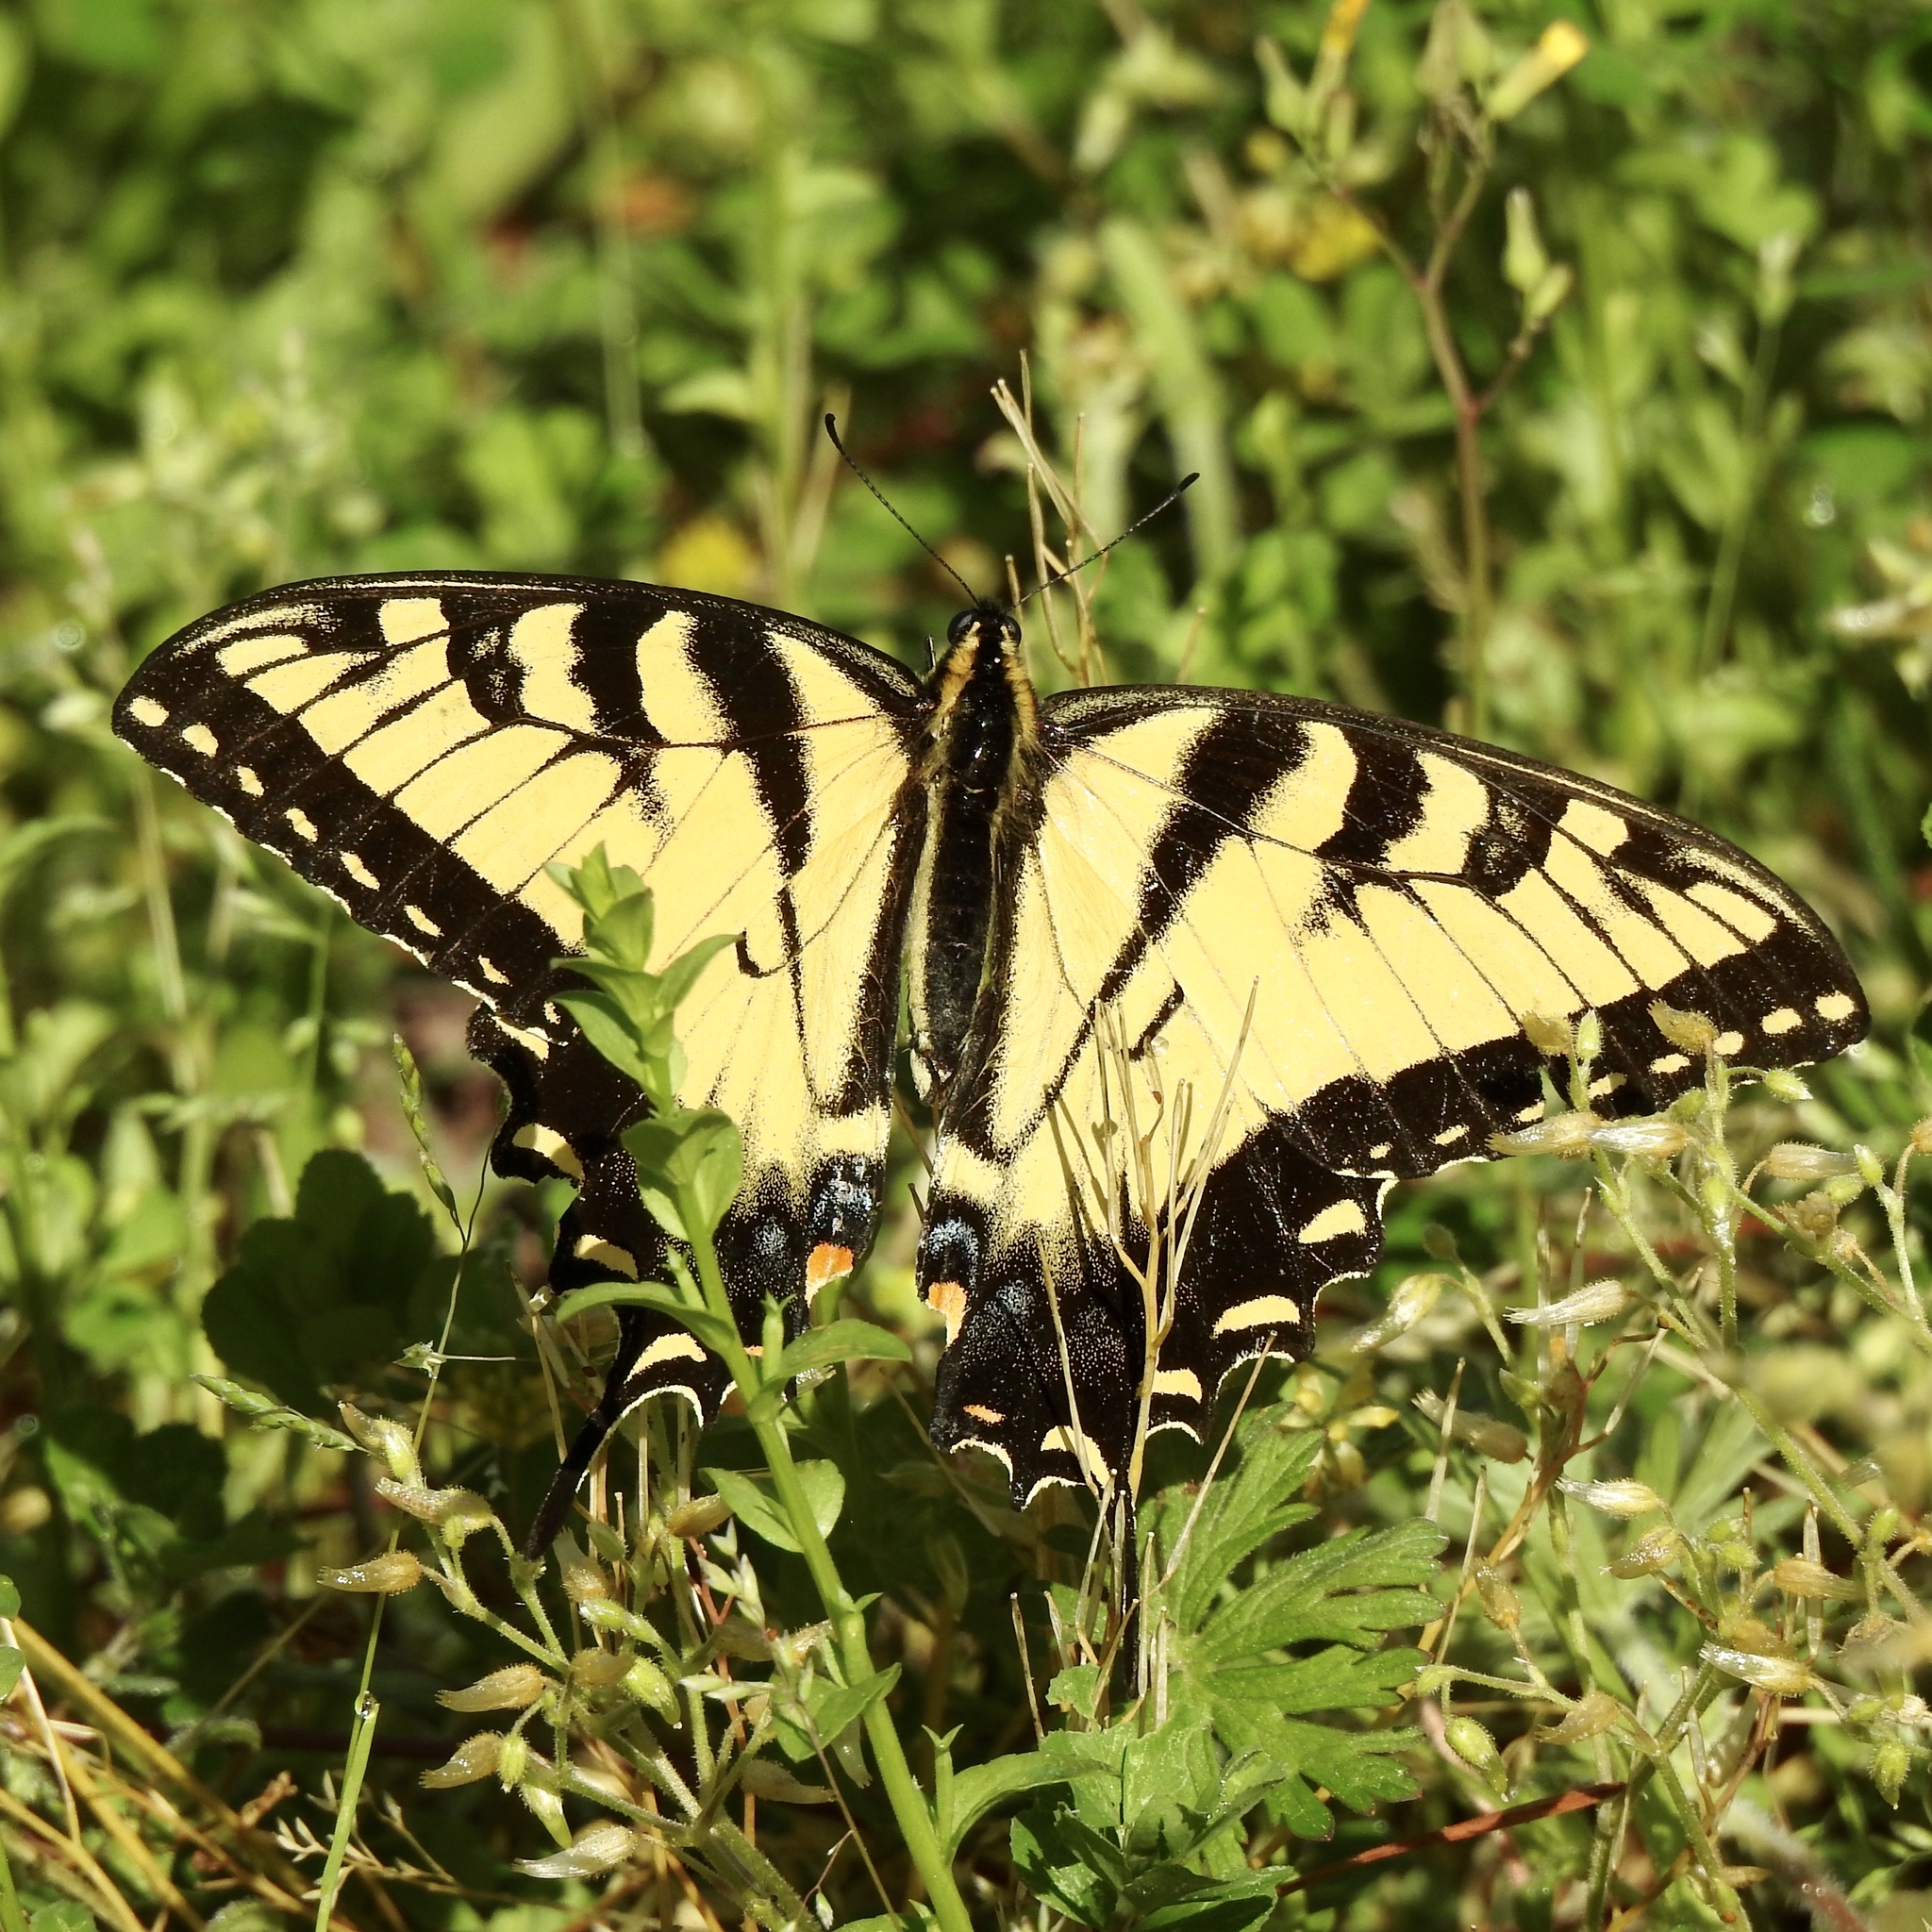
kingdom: Animalia
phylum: Arthropoda
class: Insecta
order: Lepidoptera
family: Papilionidae
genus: Papilio
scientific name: Papilio glaucus
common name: Tiger swallowtail
